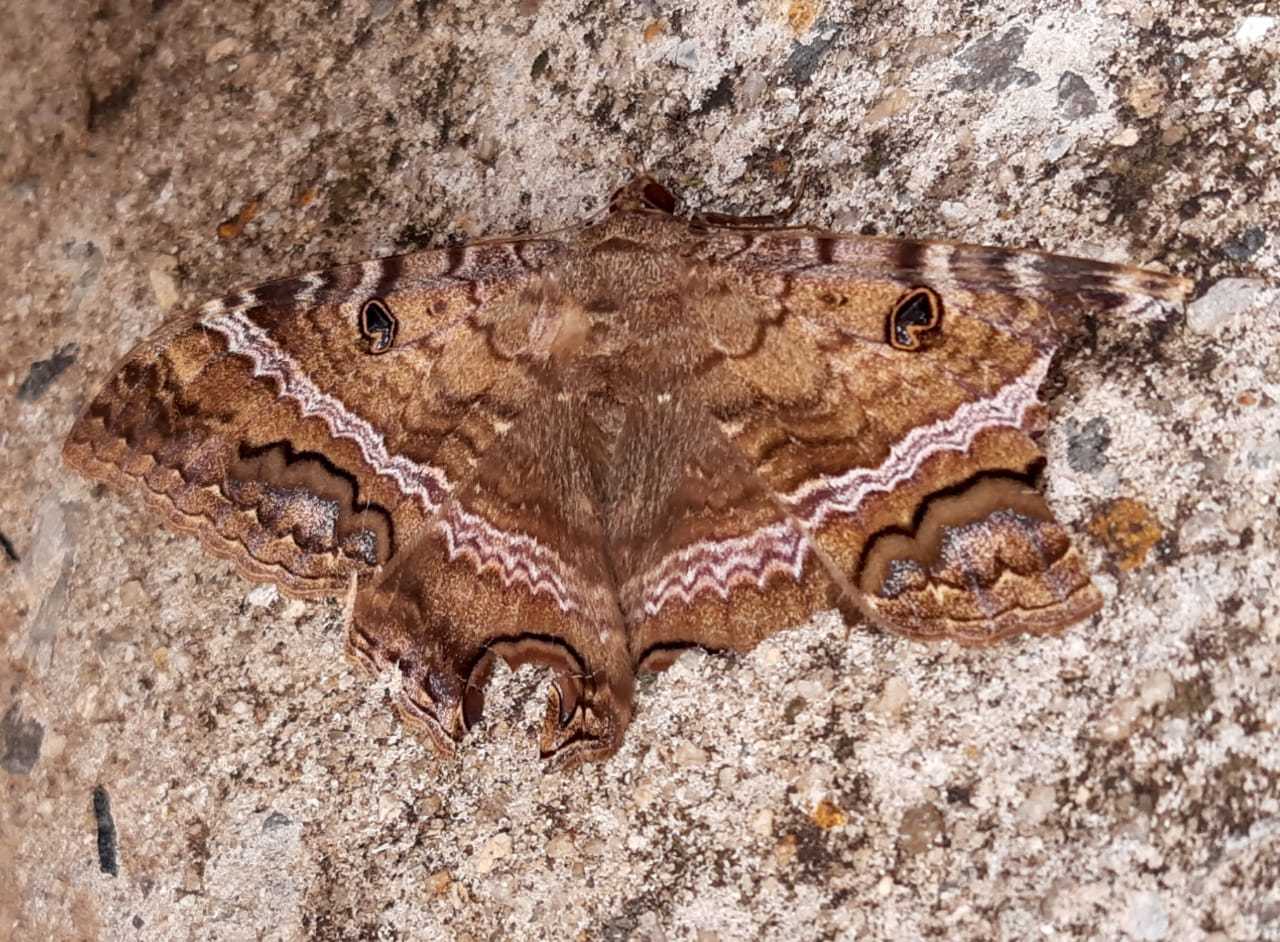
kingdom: Animalia
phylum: Arthropoda
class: Insecta
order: Lepidoptera
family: Erebidae
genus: Ascalapha
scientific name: Ascalapha odorata
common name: Black witch
